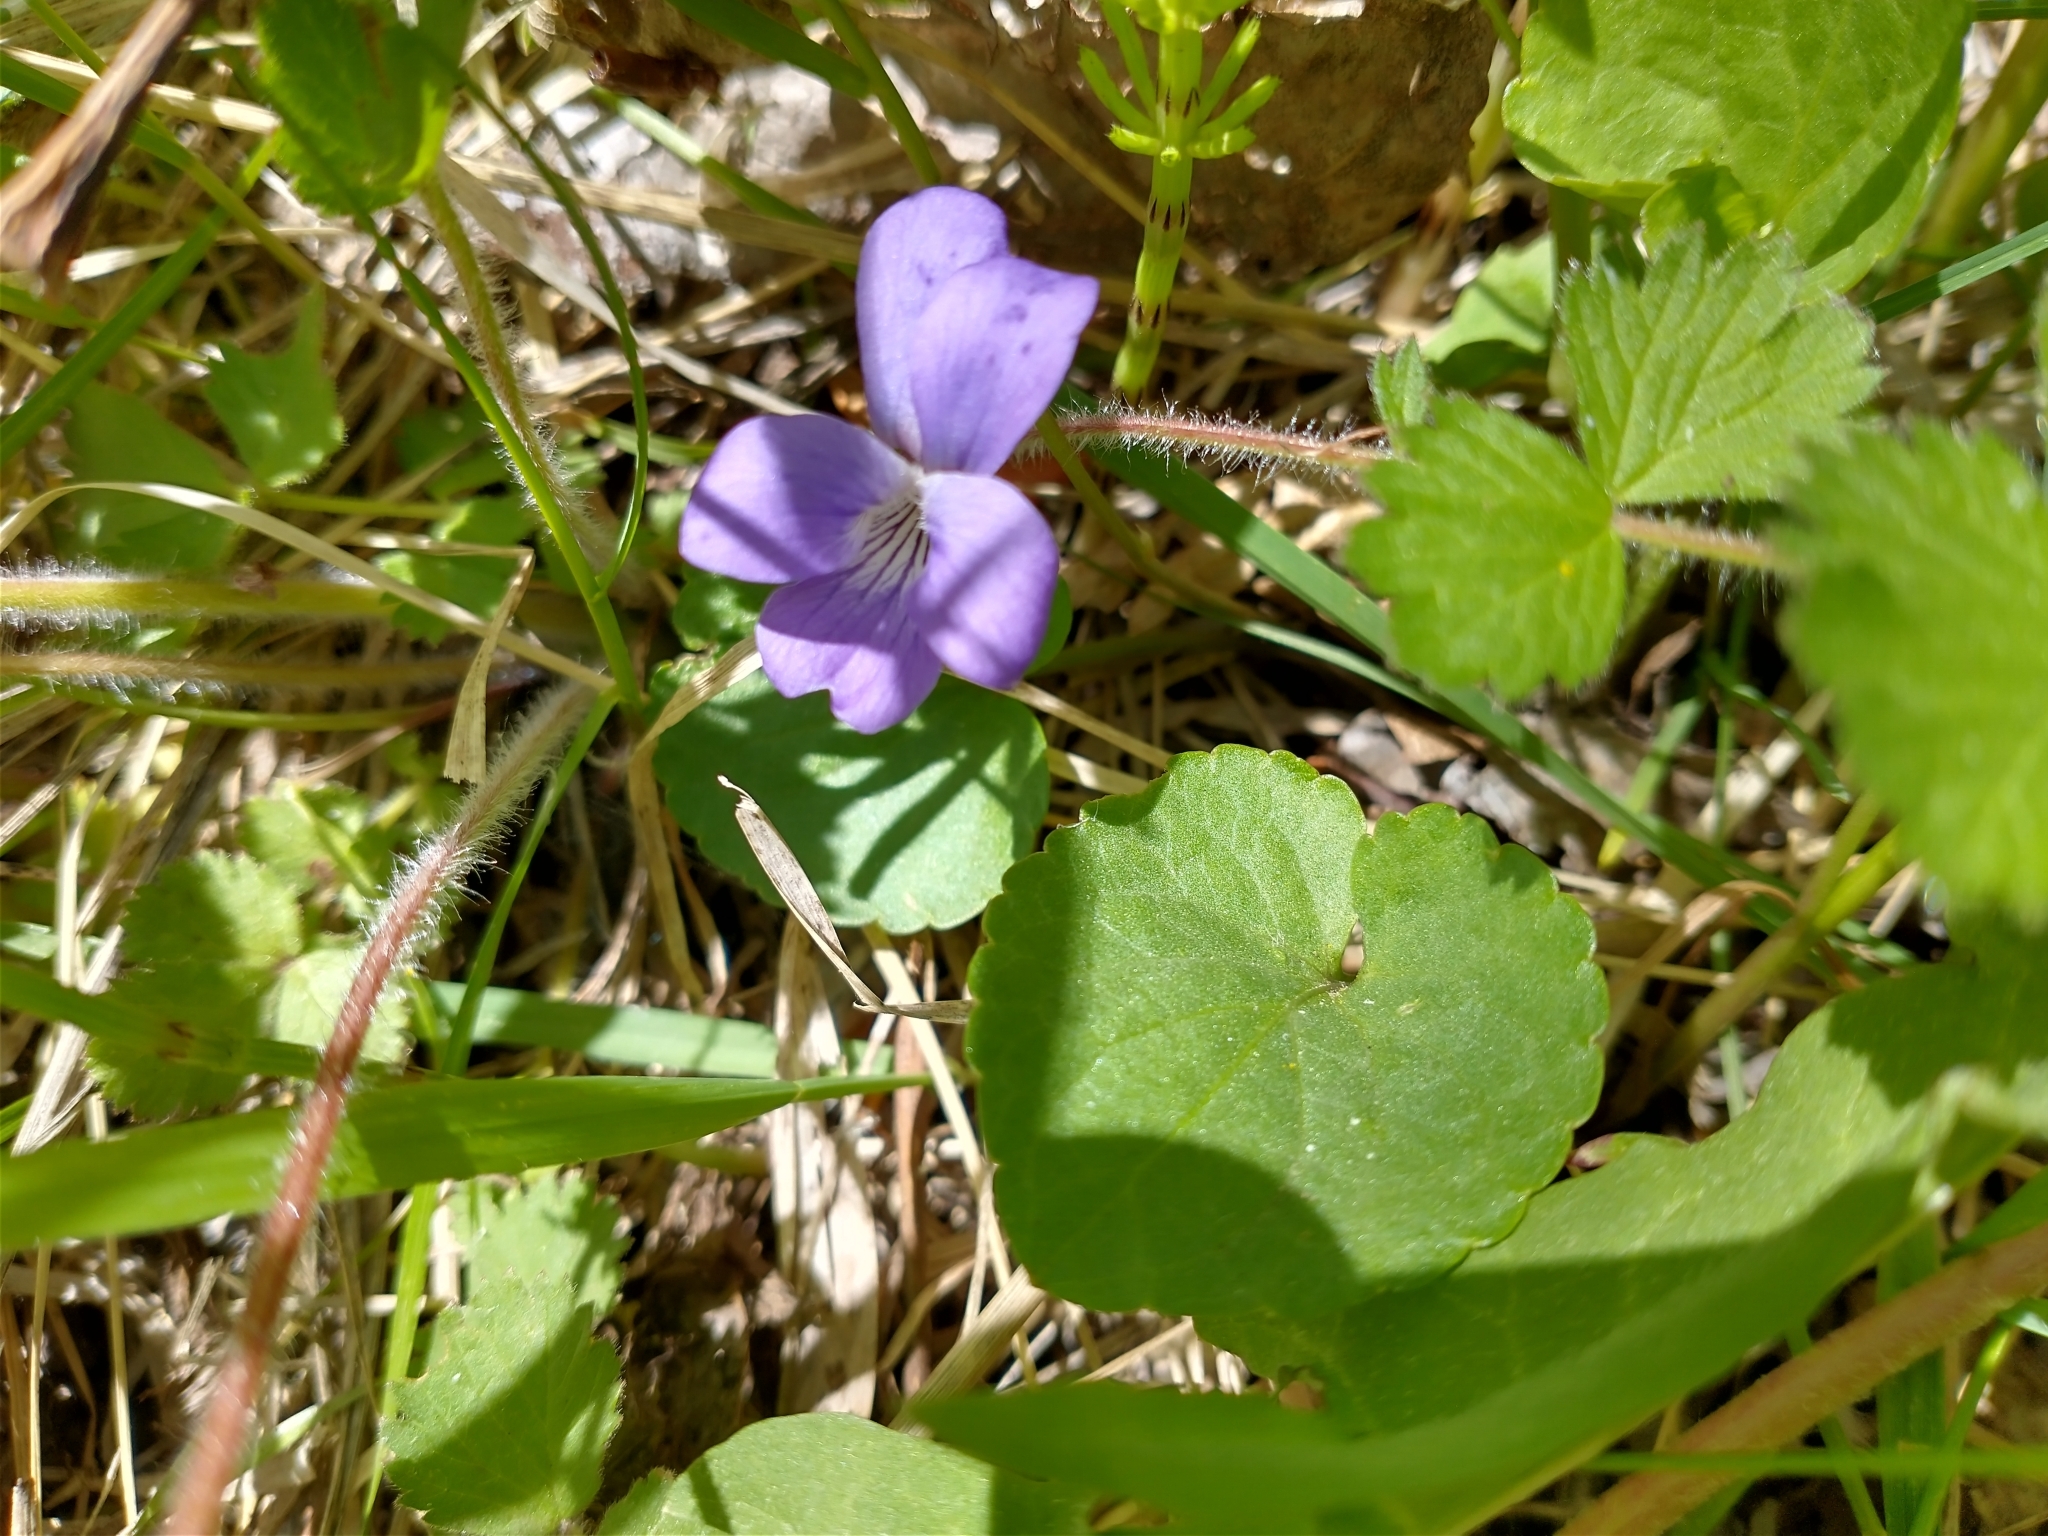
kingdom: Plantae
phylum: Tracheophyta
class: Magnoliopsida
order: Malpighiales
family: Violaceae
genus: Viola
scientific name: Viola adunca
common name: Sand violet
